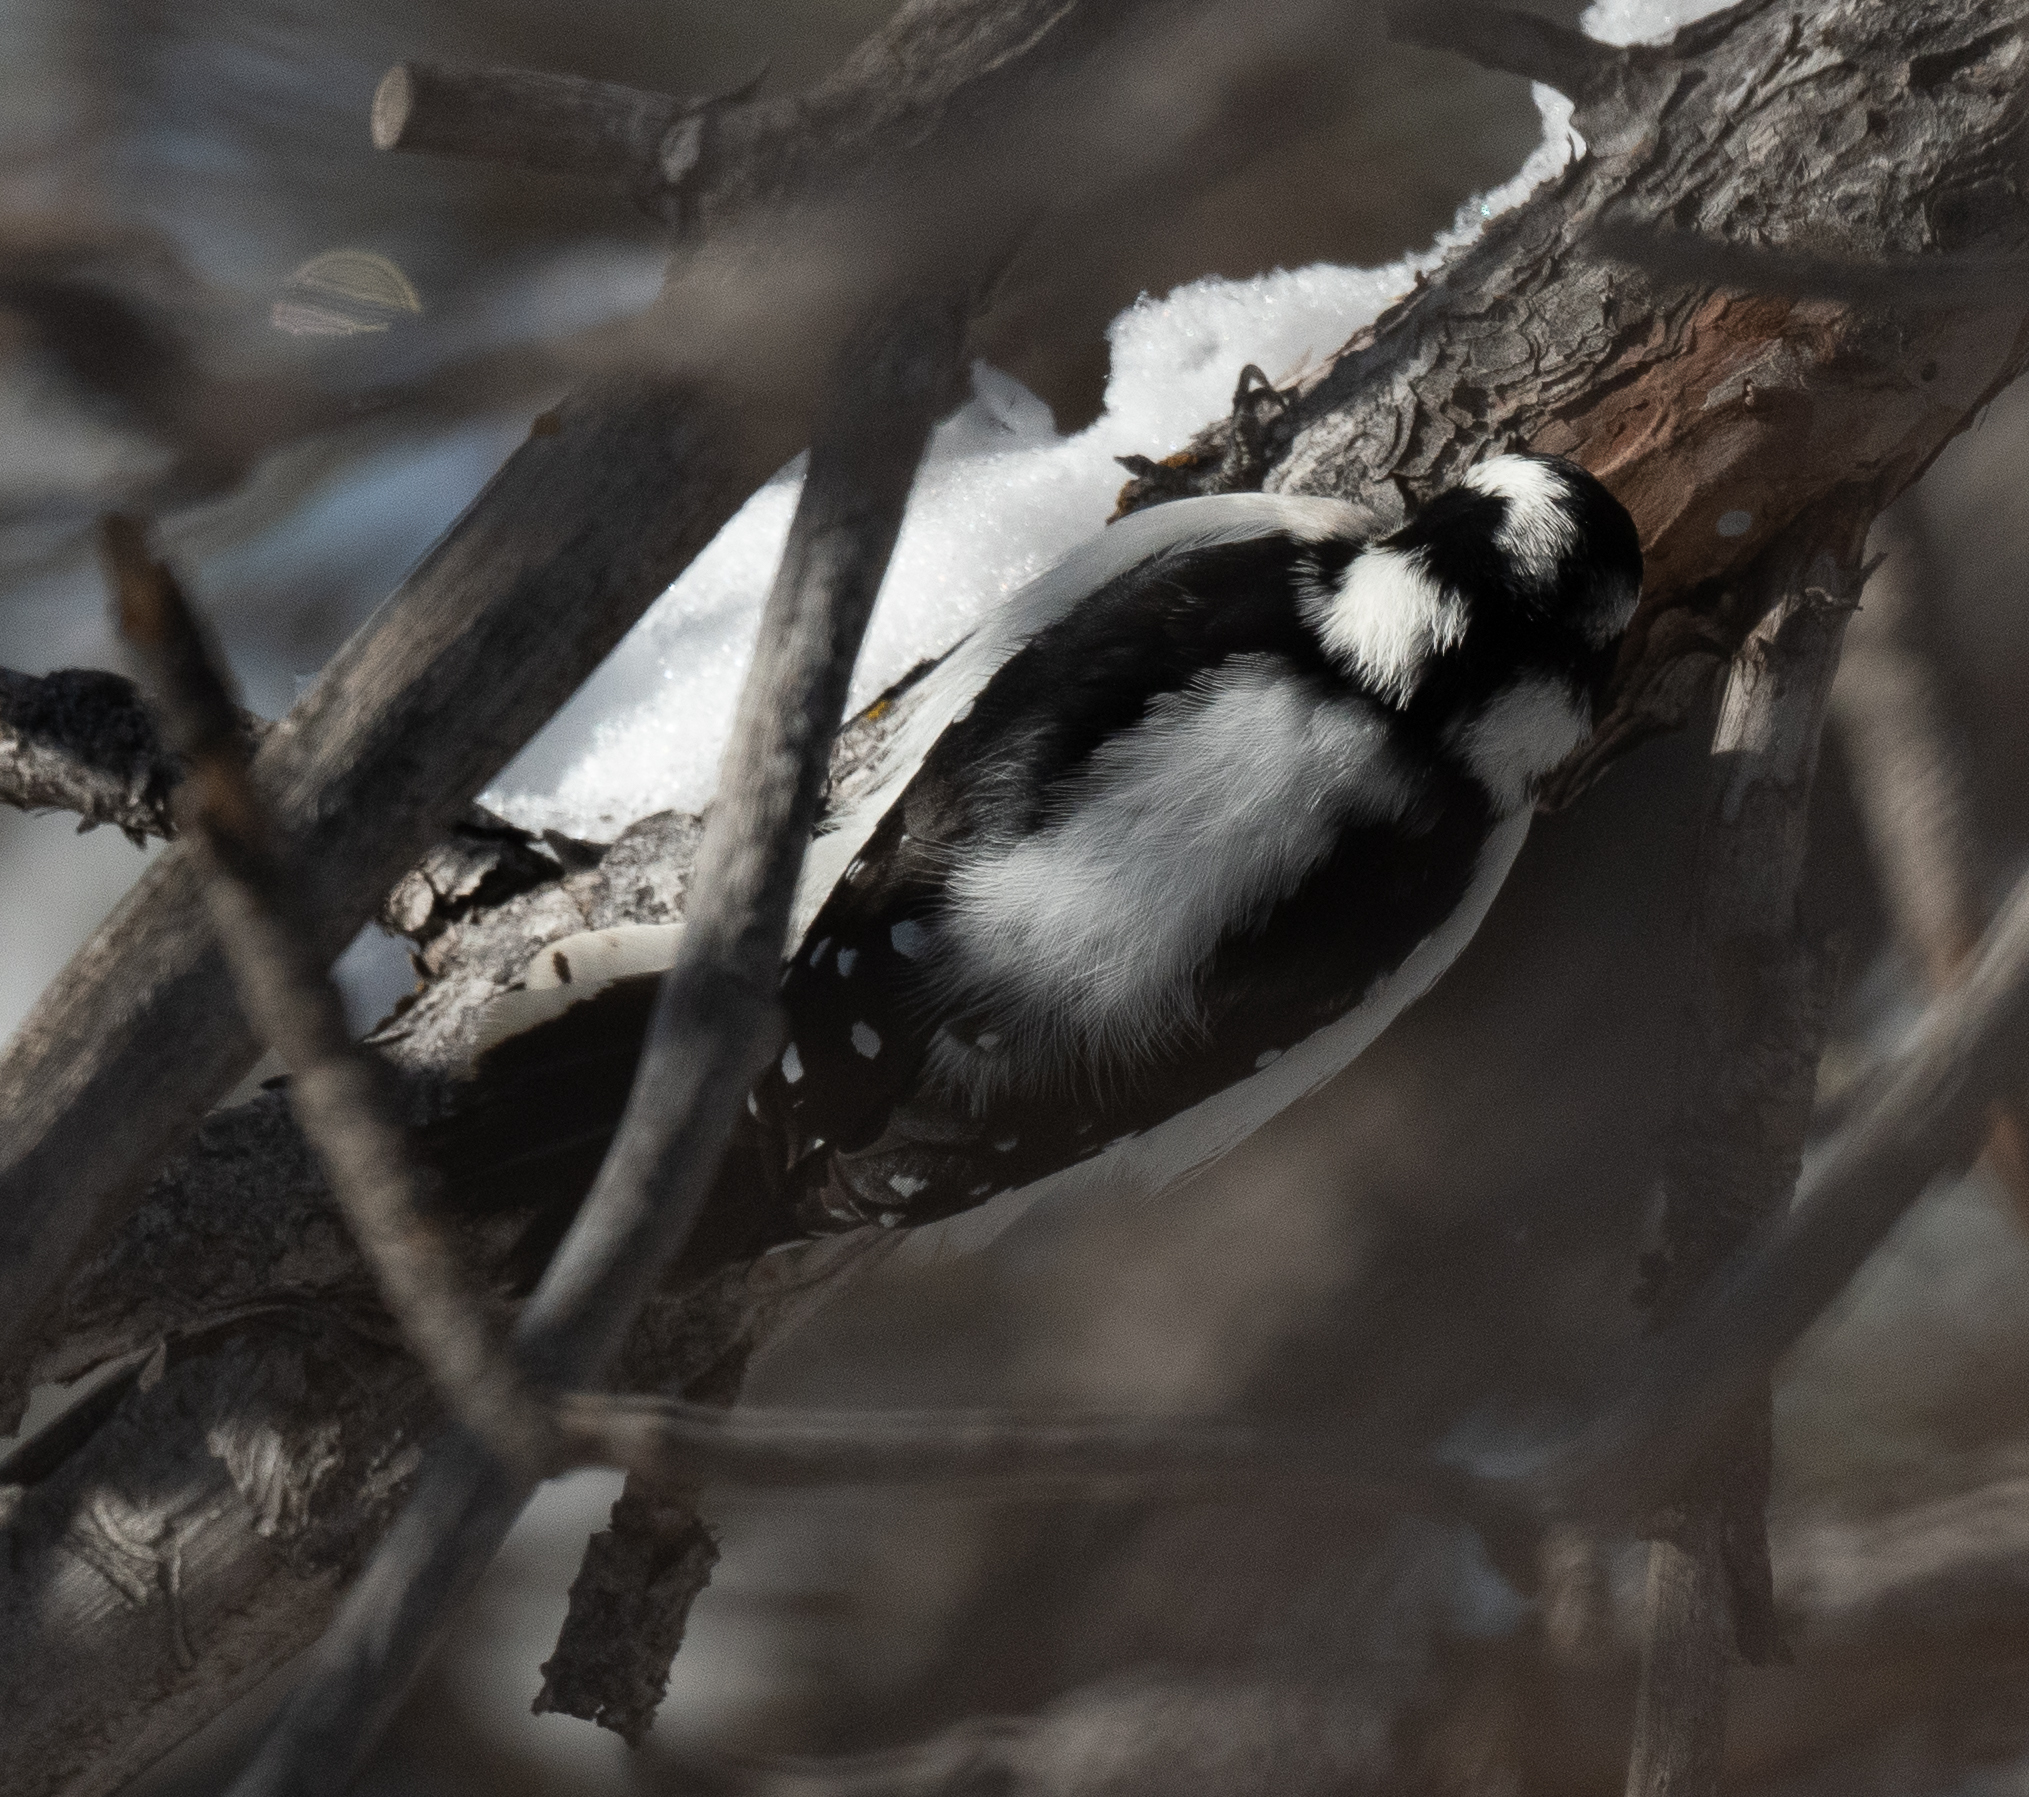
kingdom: Animalia
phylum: Chordata
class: Aves
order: Piciformes
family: Picidae
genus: Dryobates
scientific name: Dryobates pubescens
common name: Downy woodpecker
